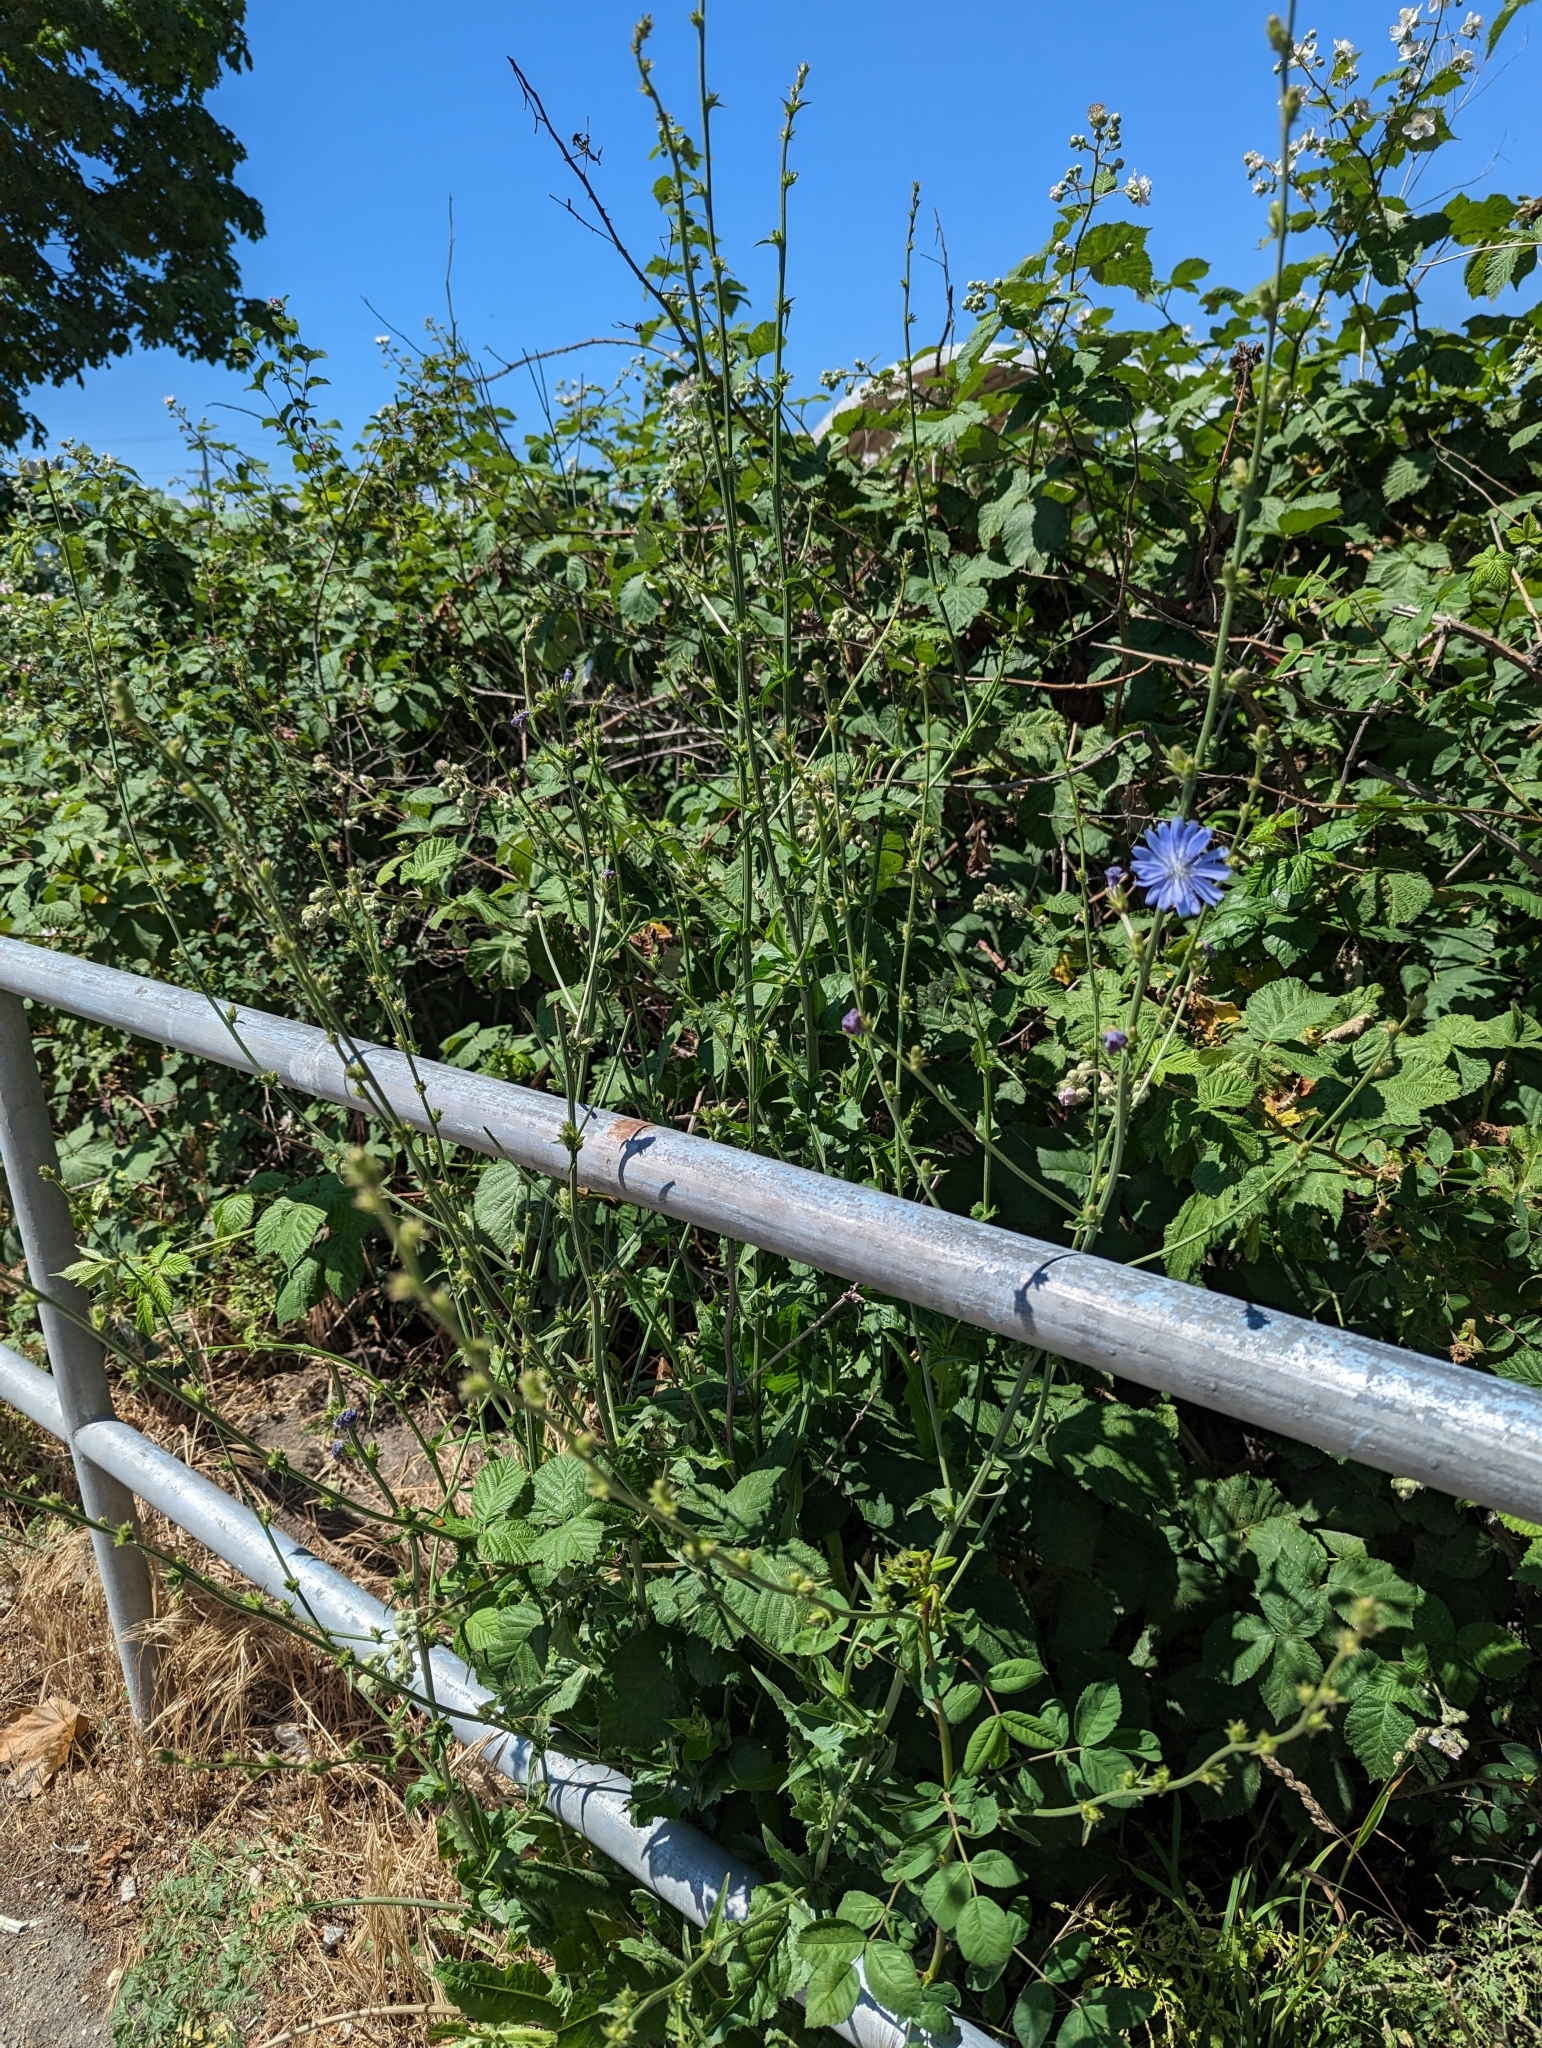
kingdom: Plantae
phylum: Tracheophyta
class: Magnoliopsida
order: Asterales
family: Asteraceae
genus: Cichorium
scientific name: Cichorium intybus
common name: Chicory
